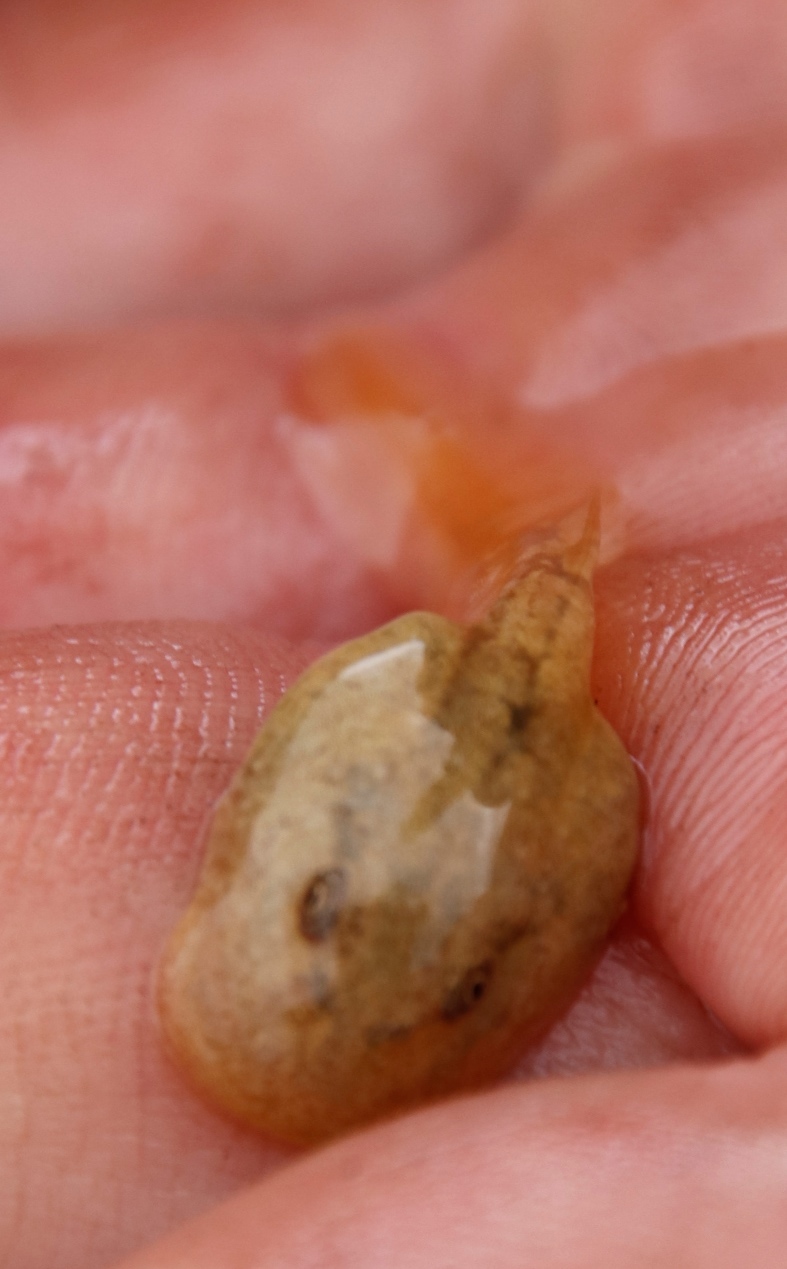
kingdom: Animalia
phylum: Chordata
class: Amphibia
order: Anura
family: Heleophrynidae
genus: Heleophryne
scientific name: Heleophryne purcelli
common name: Purcell's ghost frog
